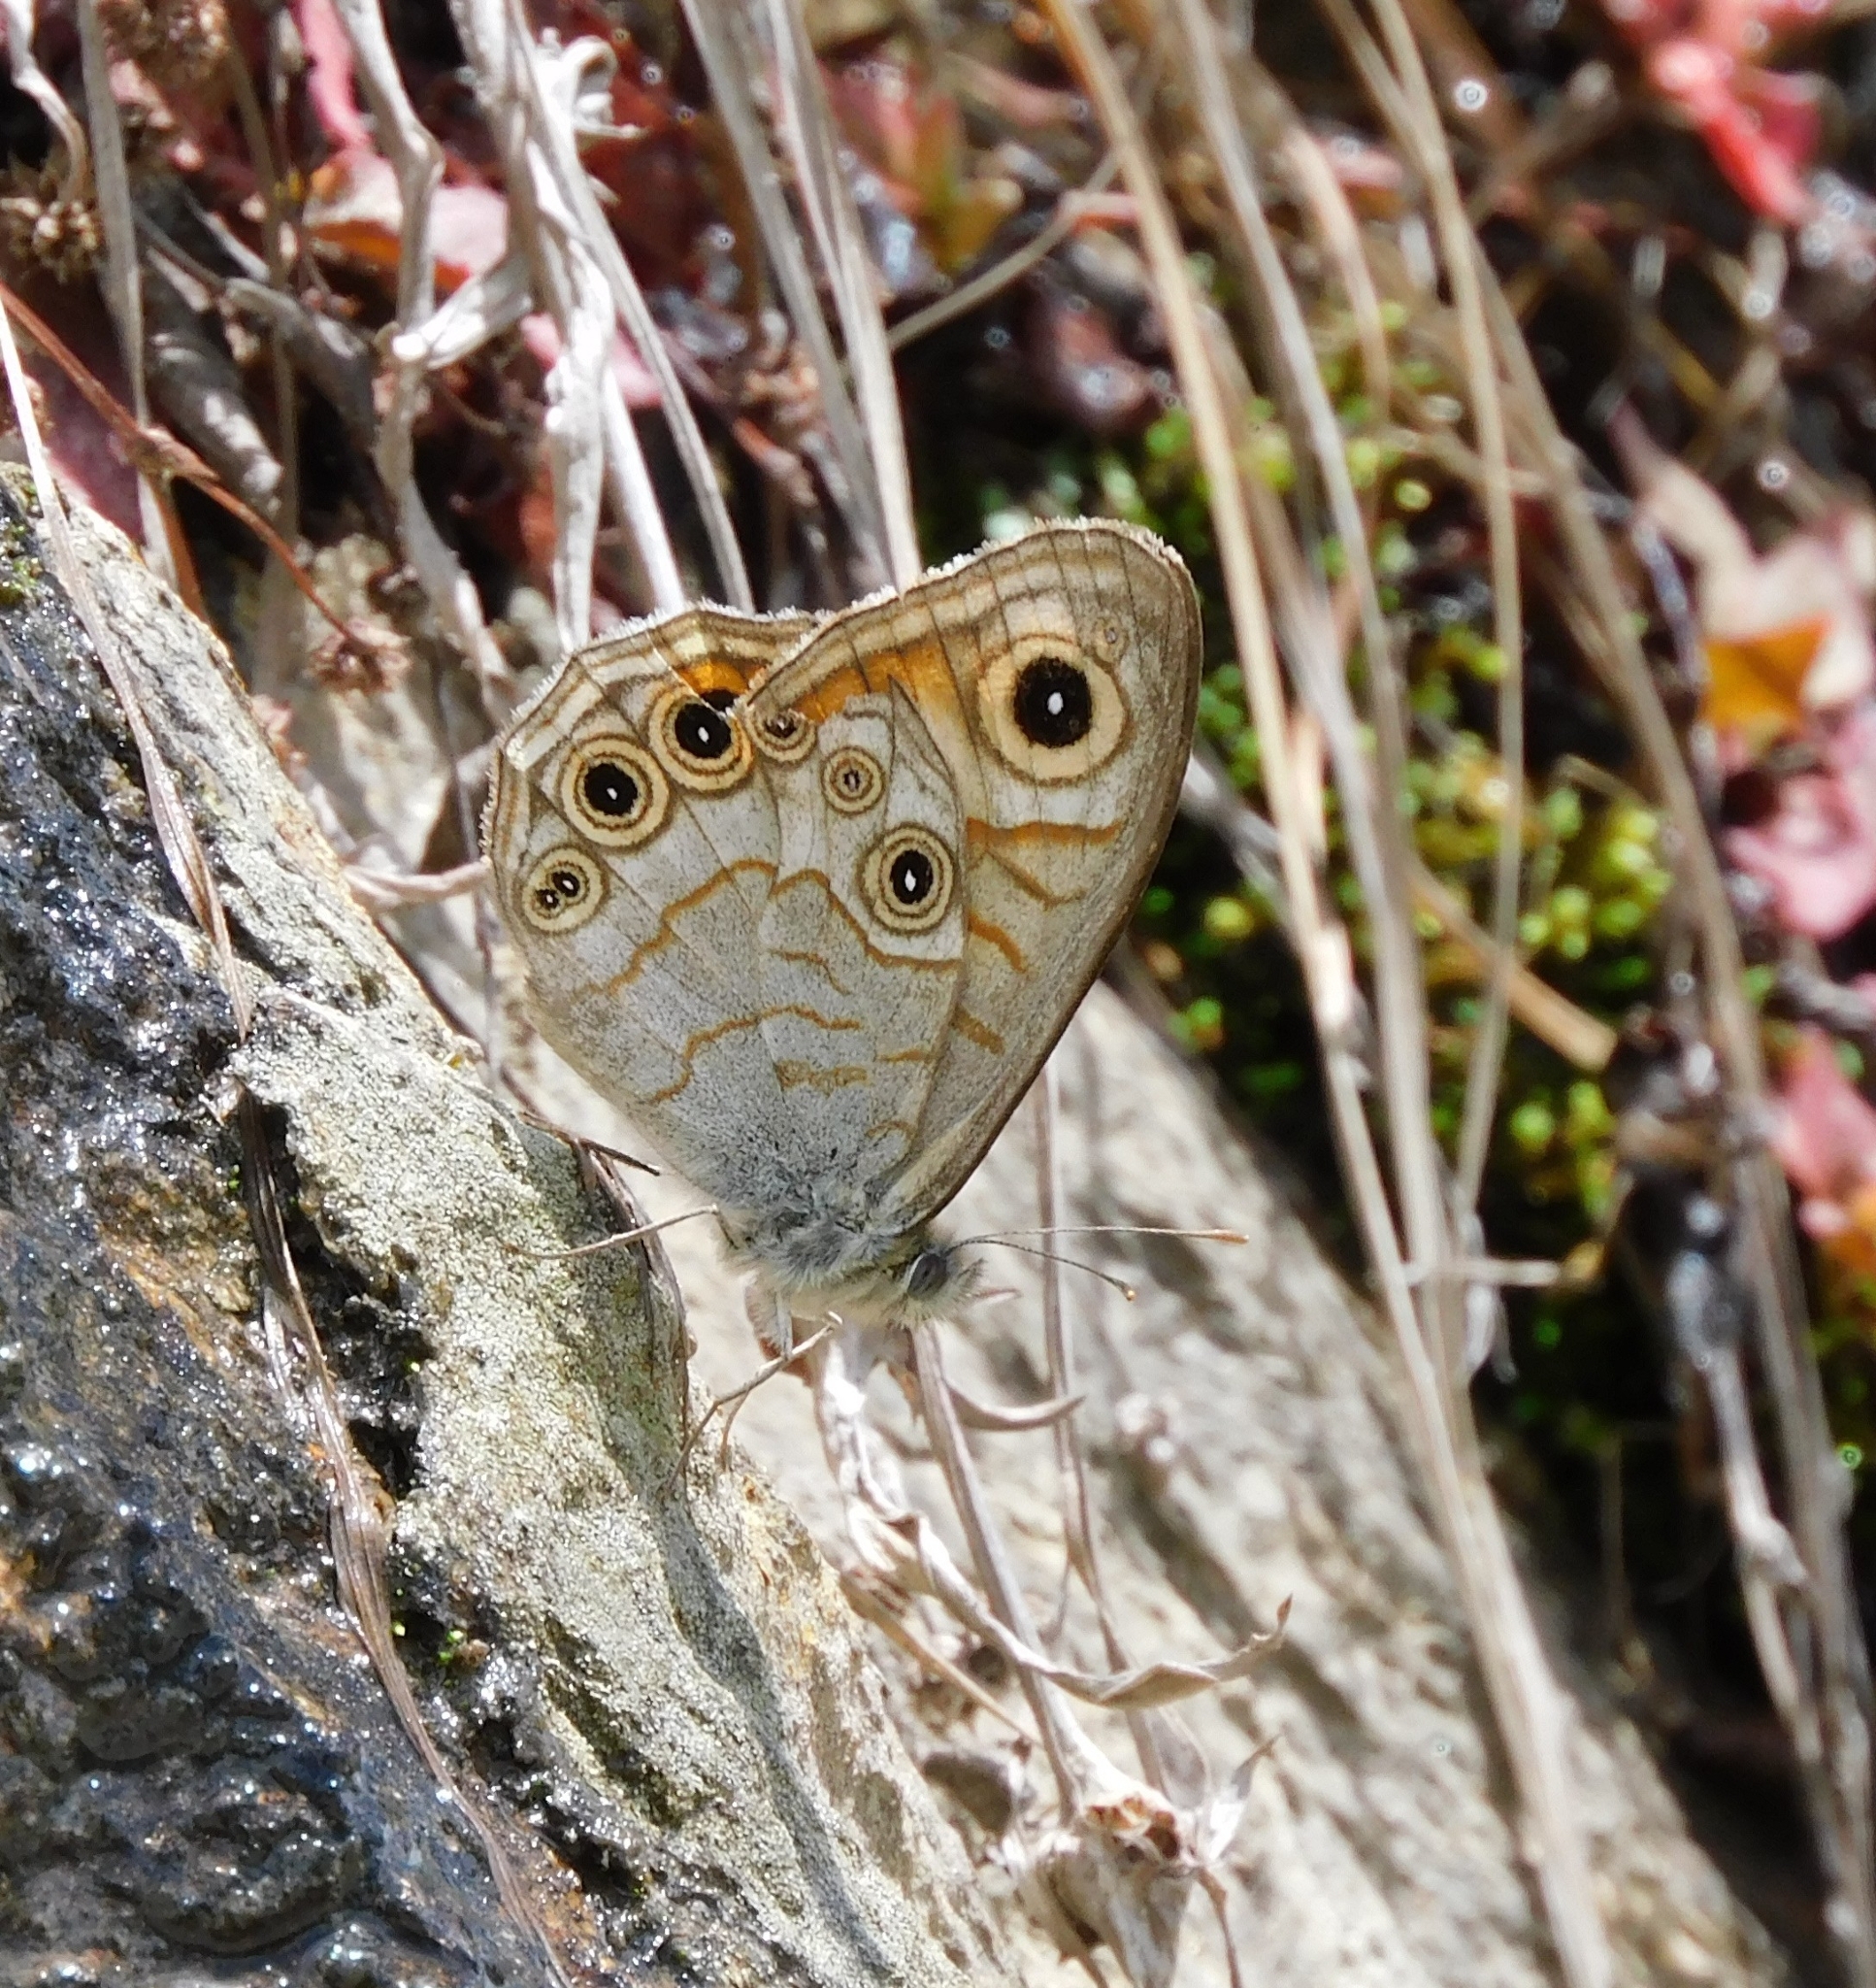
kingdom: Animalia
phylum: Arthropoda
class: Insecta
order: Lepidoptera
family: Nymphalidae
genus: Pararge
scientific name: Pararge Lasiommata schakra
